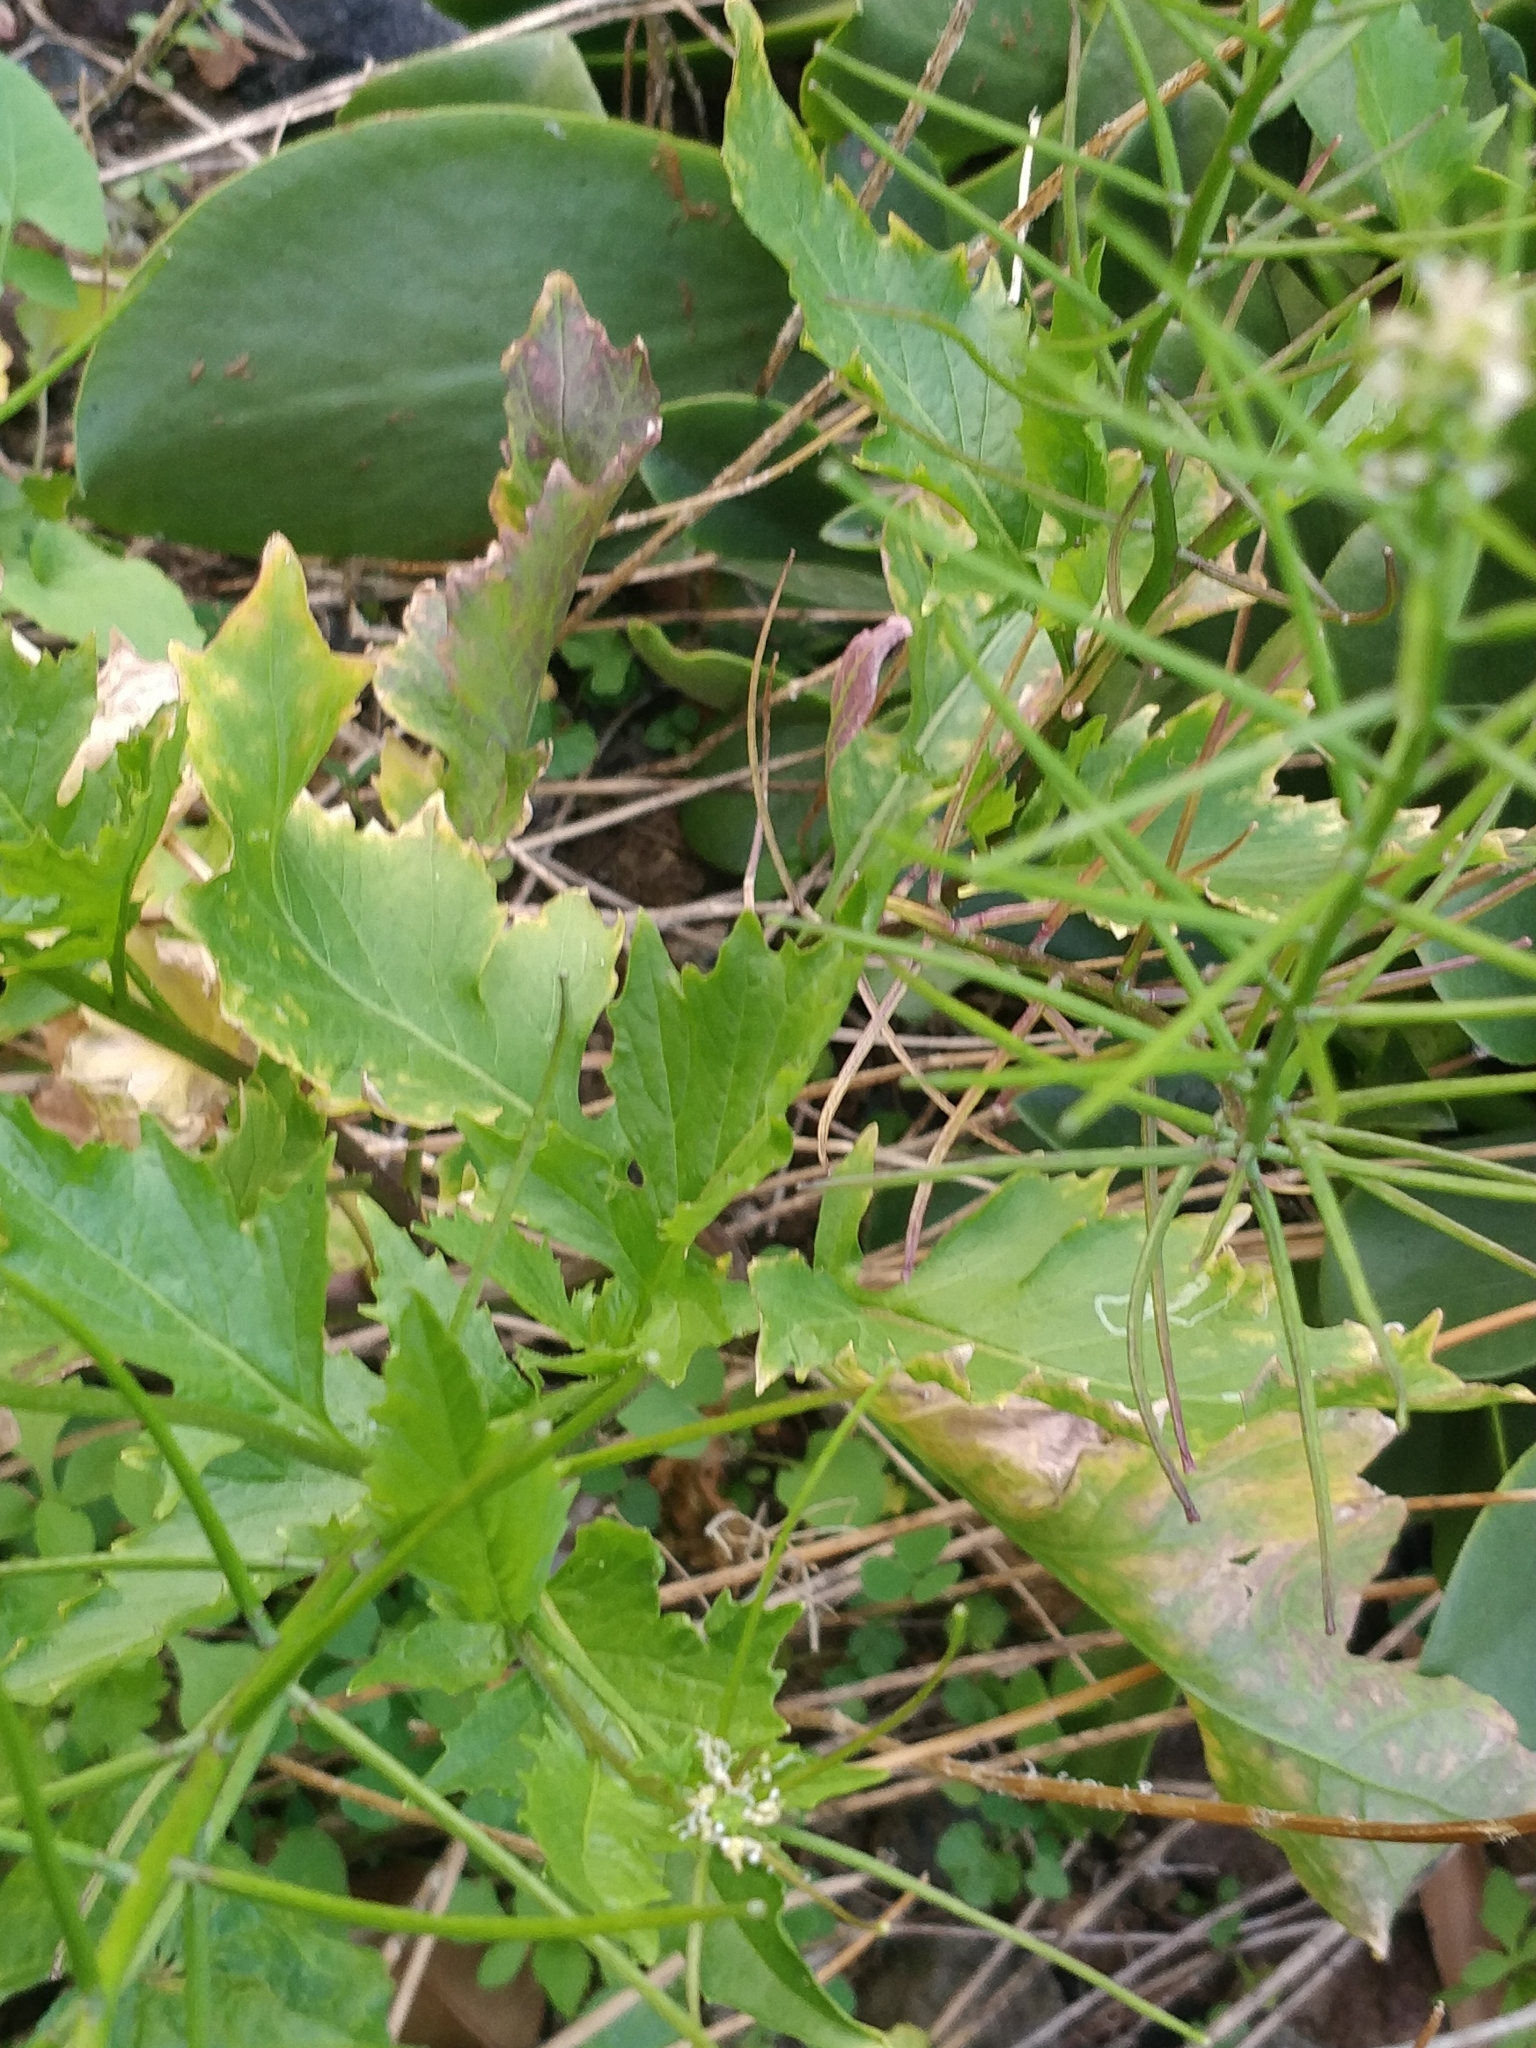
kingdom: Plantae
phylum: Tracheophyta
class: Magnoliopsida
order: Brassicales
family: Brassicaceae
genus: Sisymbrium
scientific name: Sisymbrium erysimoides
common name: French rocket
